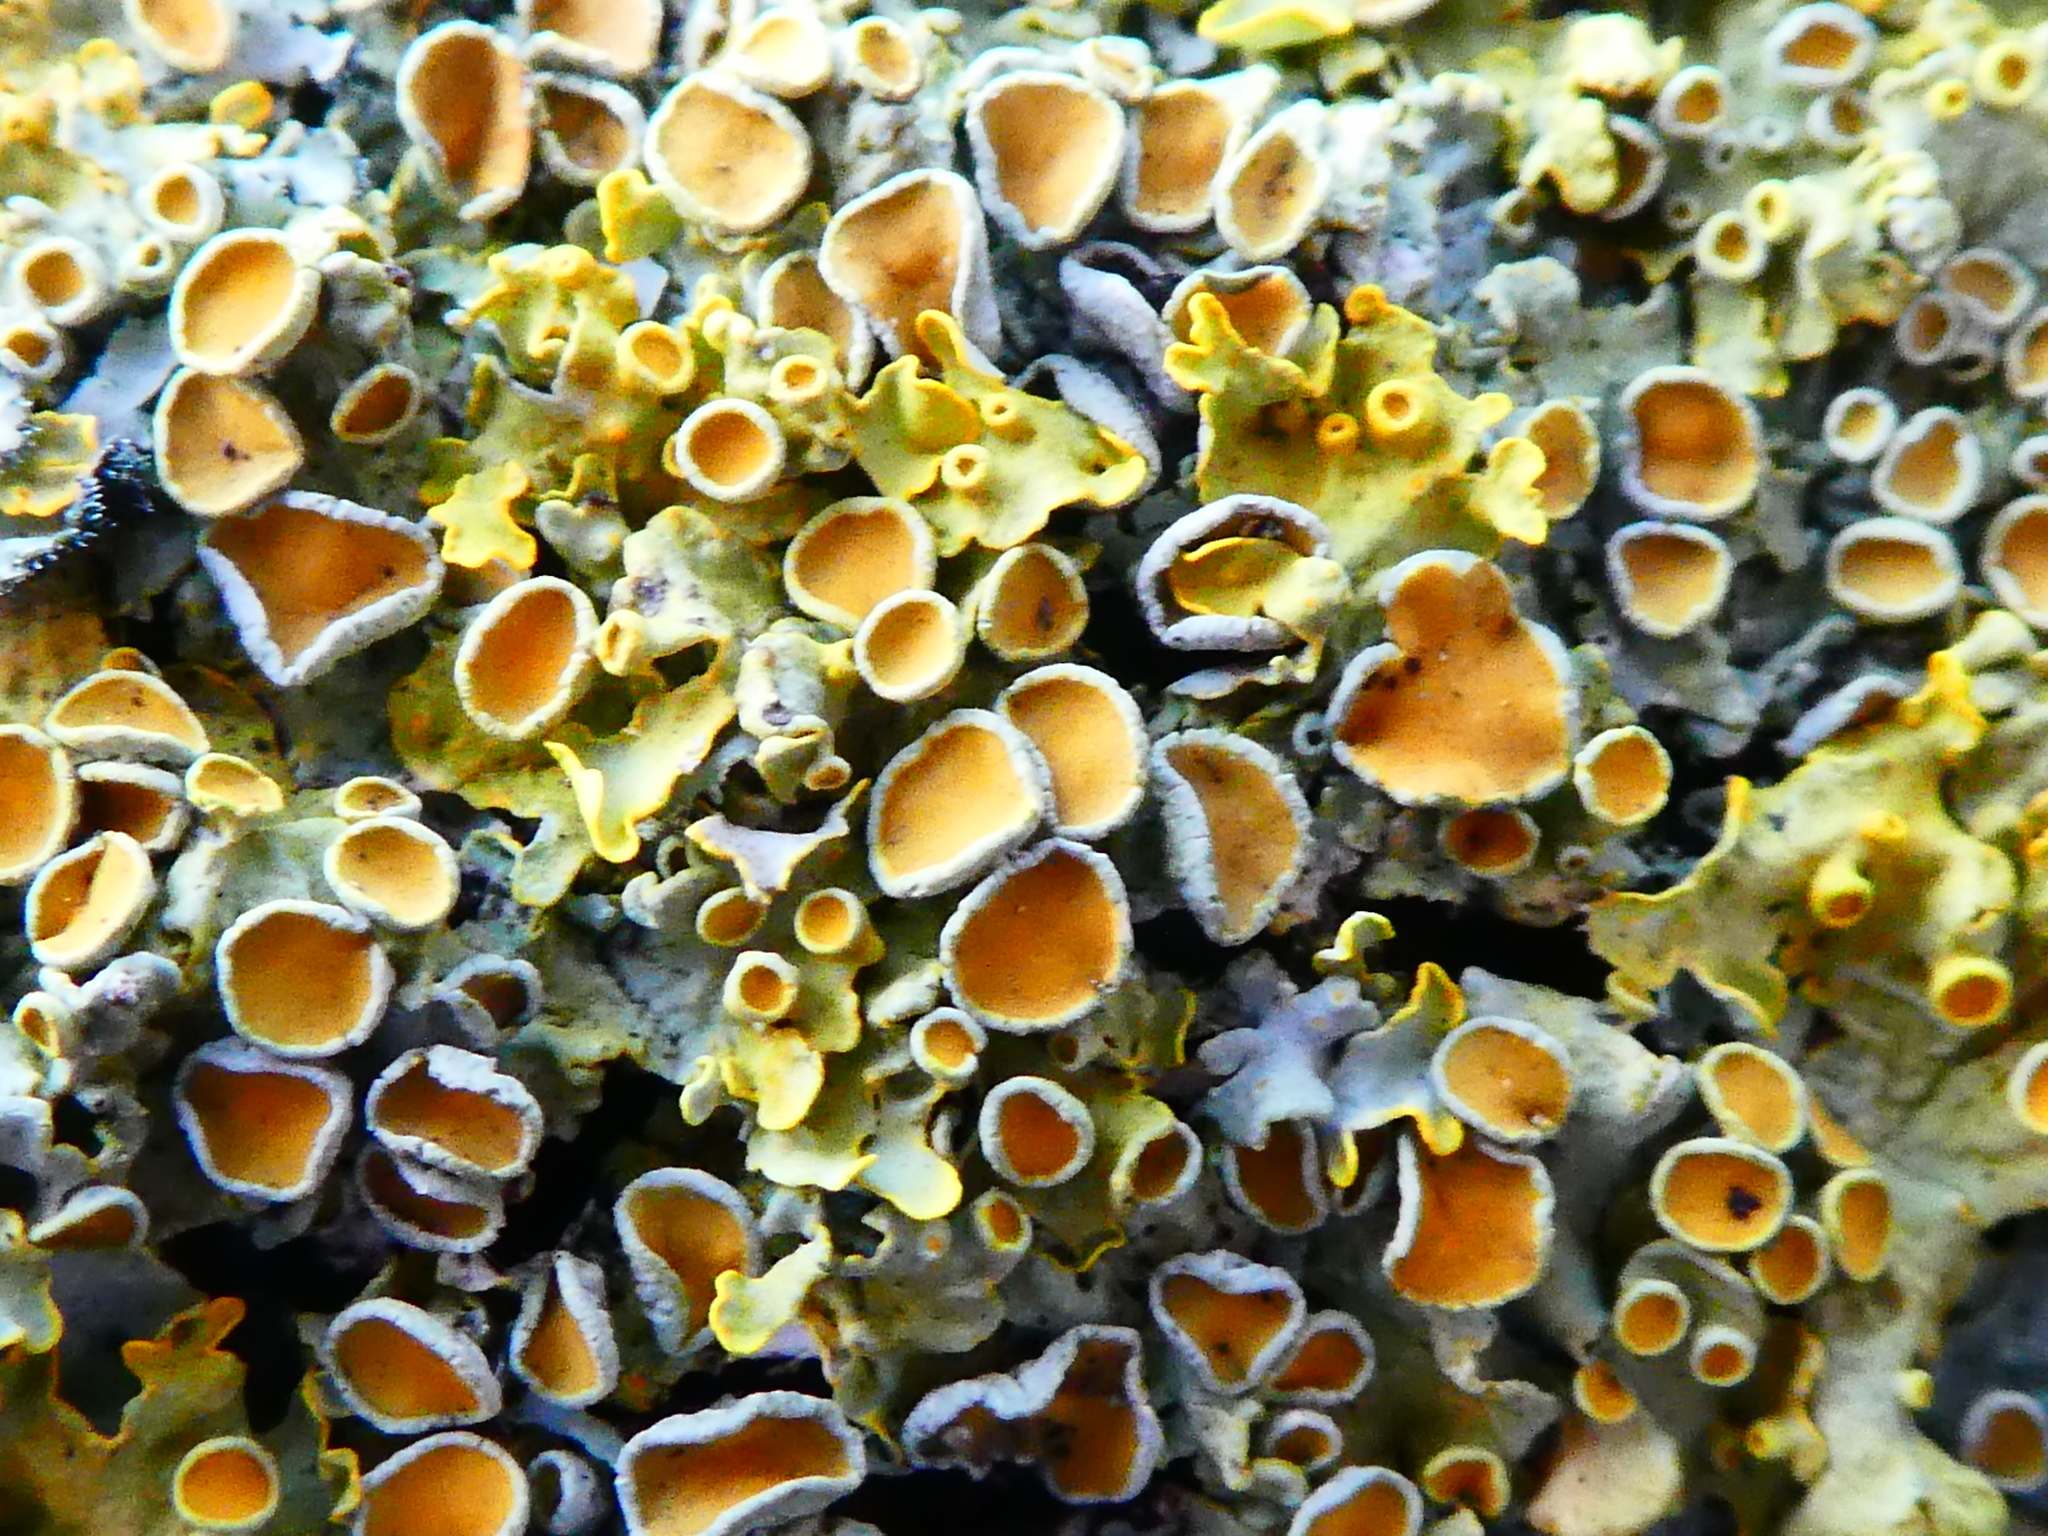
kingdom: Fungi
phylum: Ascomycota
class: Lecanoromycetes
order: Teloschistales
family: Teloschistaceae
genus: Xanthoria
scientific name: Xanthoria parietina
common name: Common orange lichen
